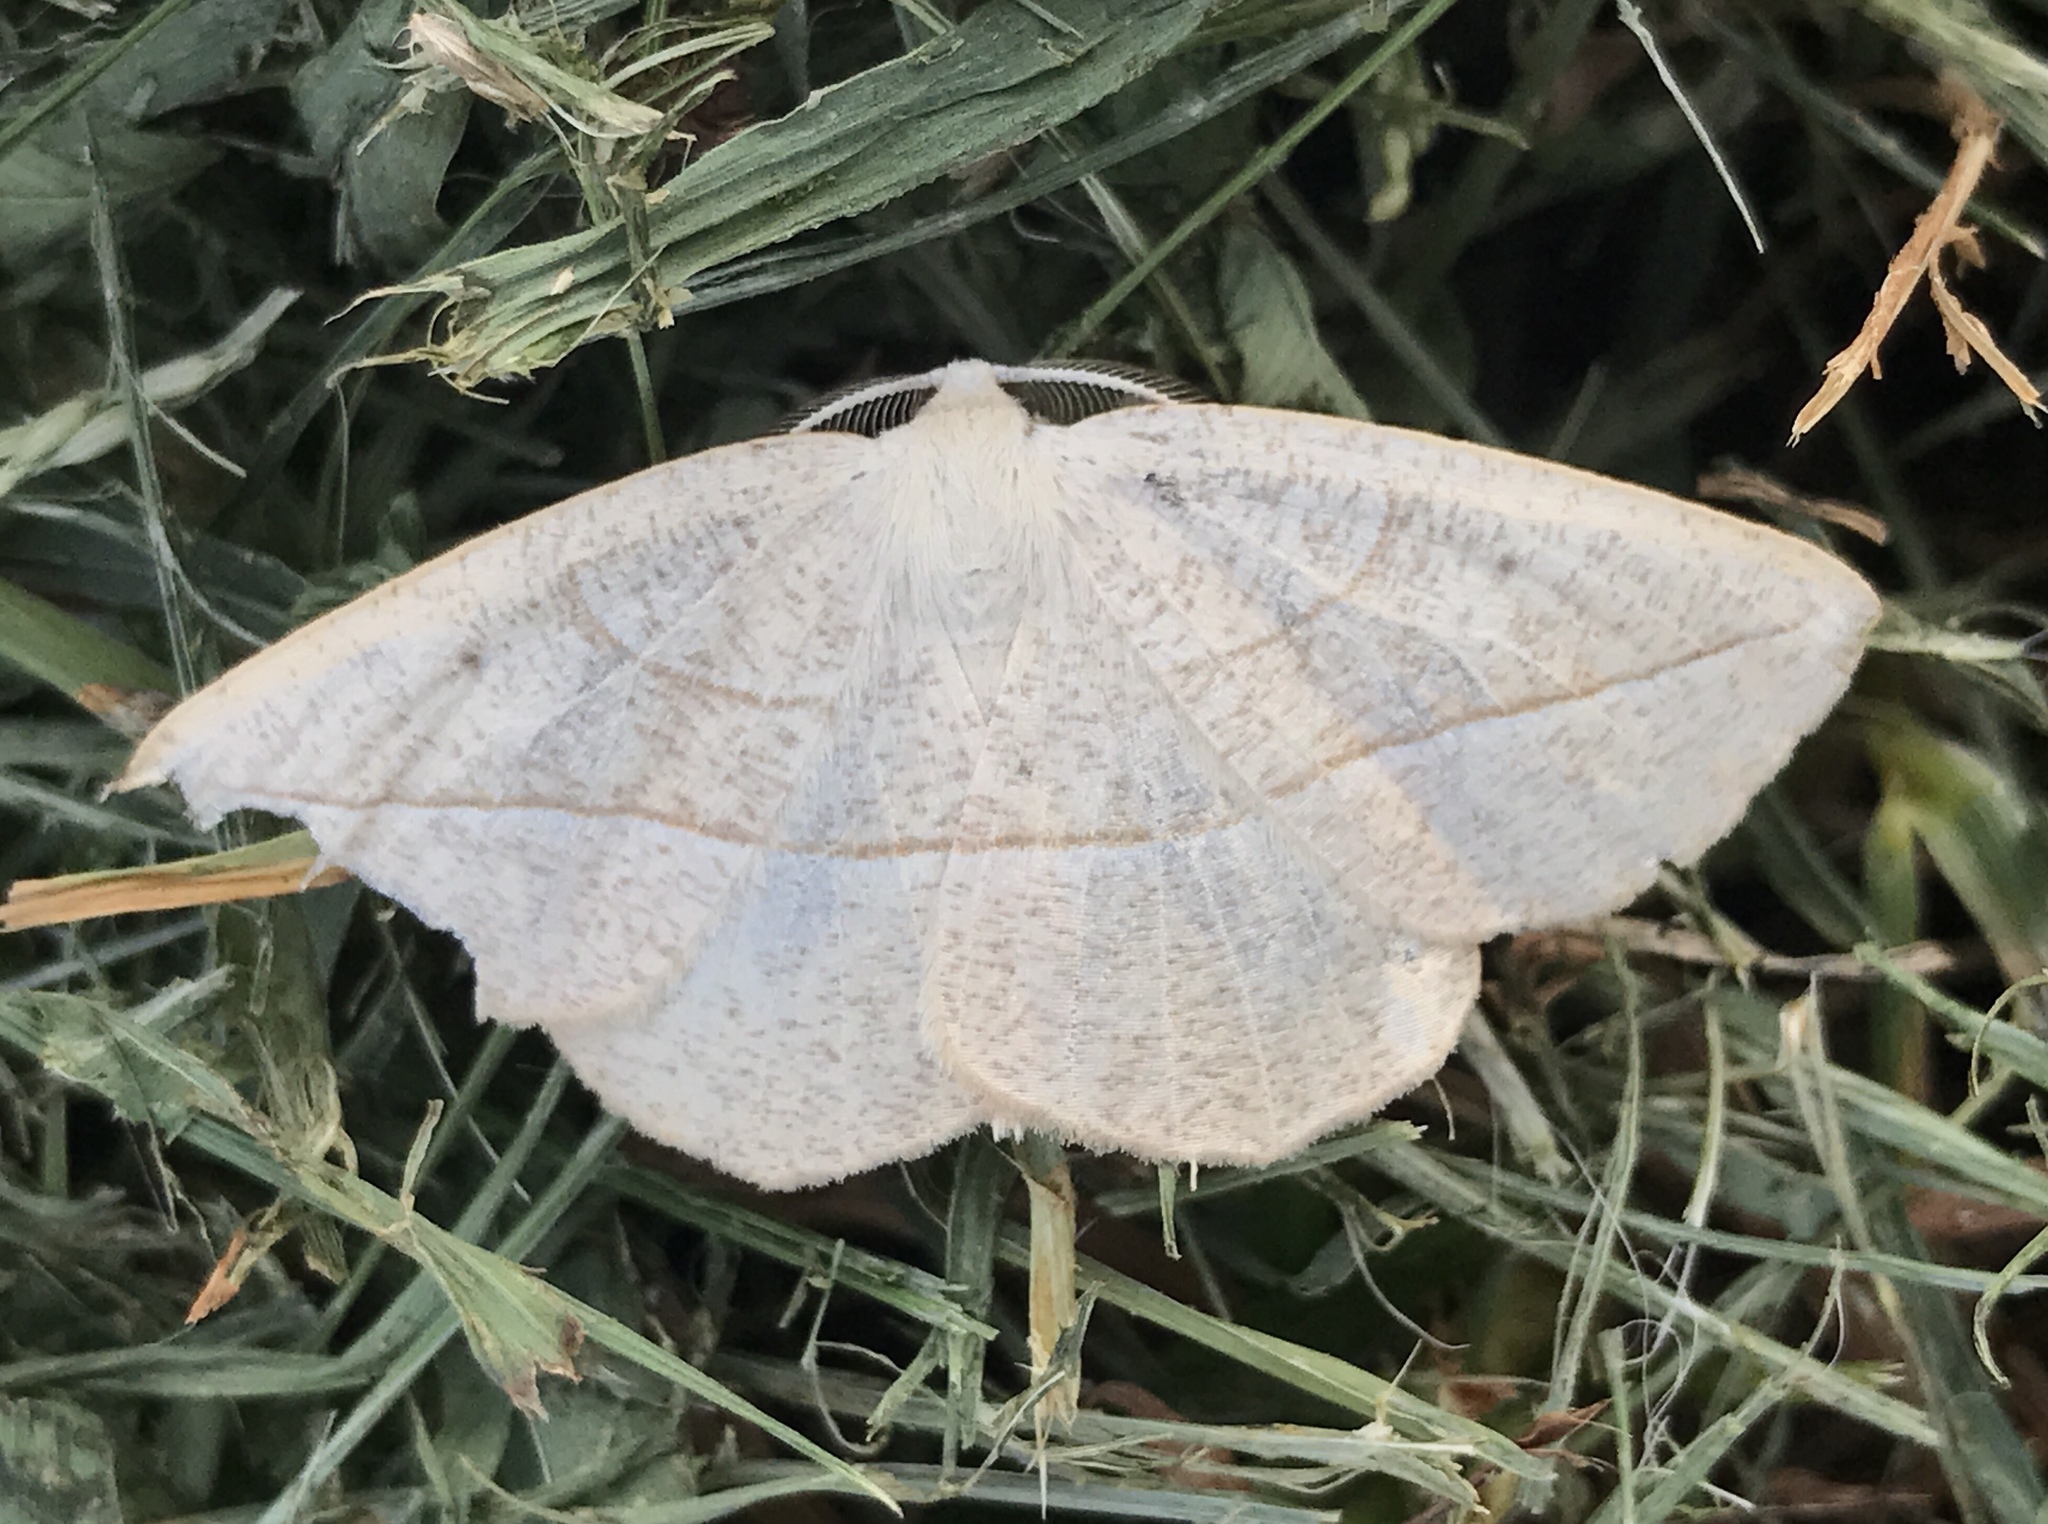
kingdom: Animalia
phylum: Arthropoda
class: Insecta
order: Lepidoptera
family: Geometridae
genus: Eusarca
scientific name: Eusarca confusaria
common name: Confused eusarca
